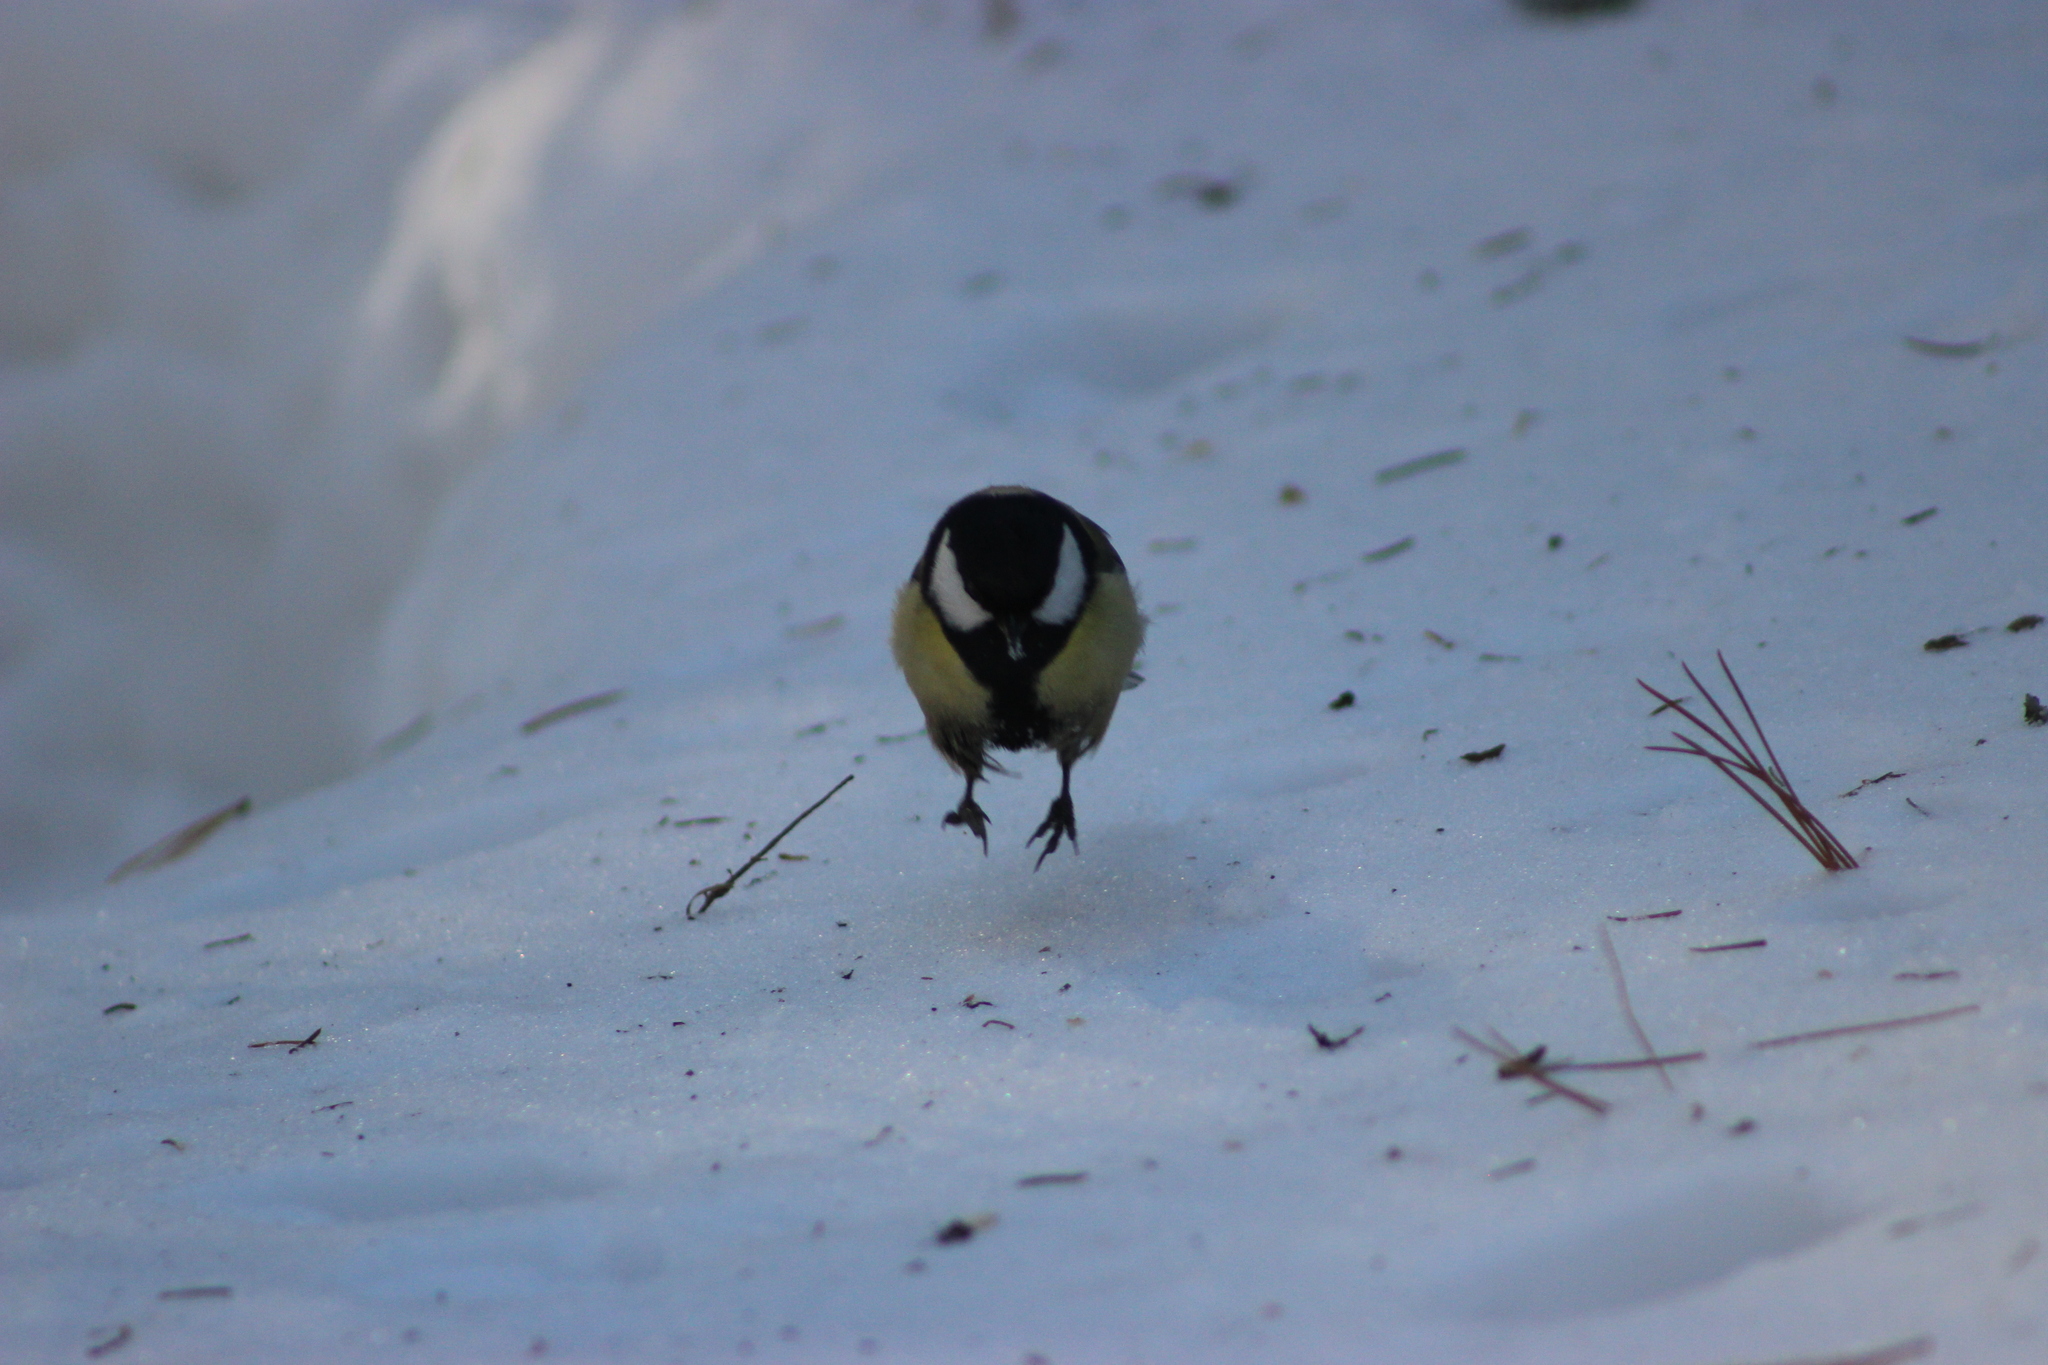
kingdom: Animalia
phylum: Chordata
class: Aves
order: Passeriformes
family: Paridae
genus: Parus
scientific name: Parus major
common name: Great tit
